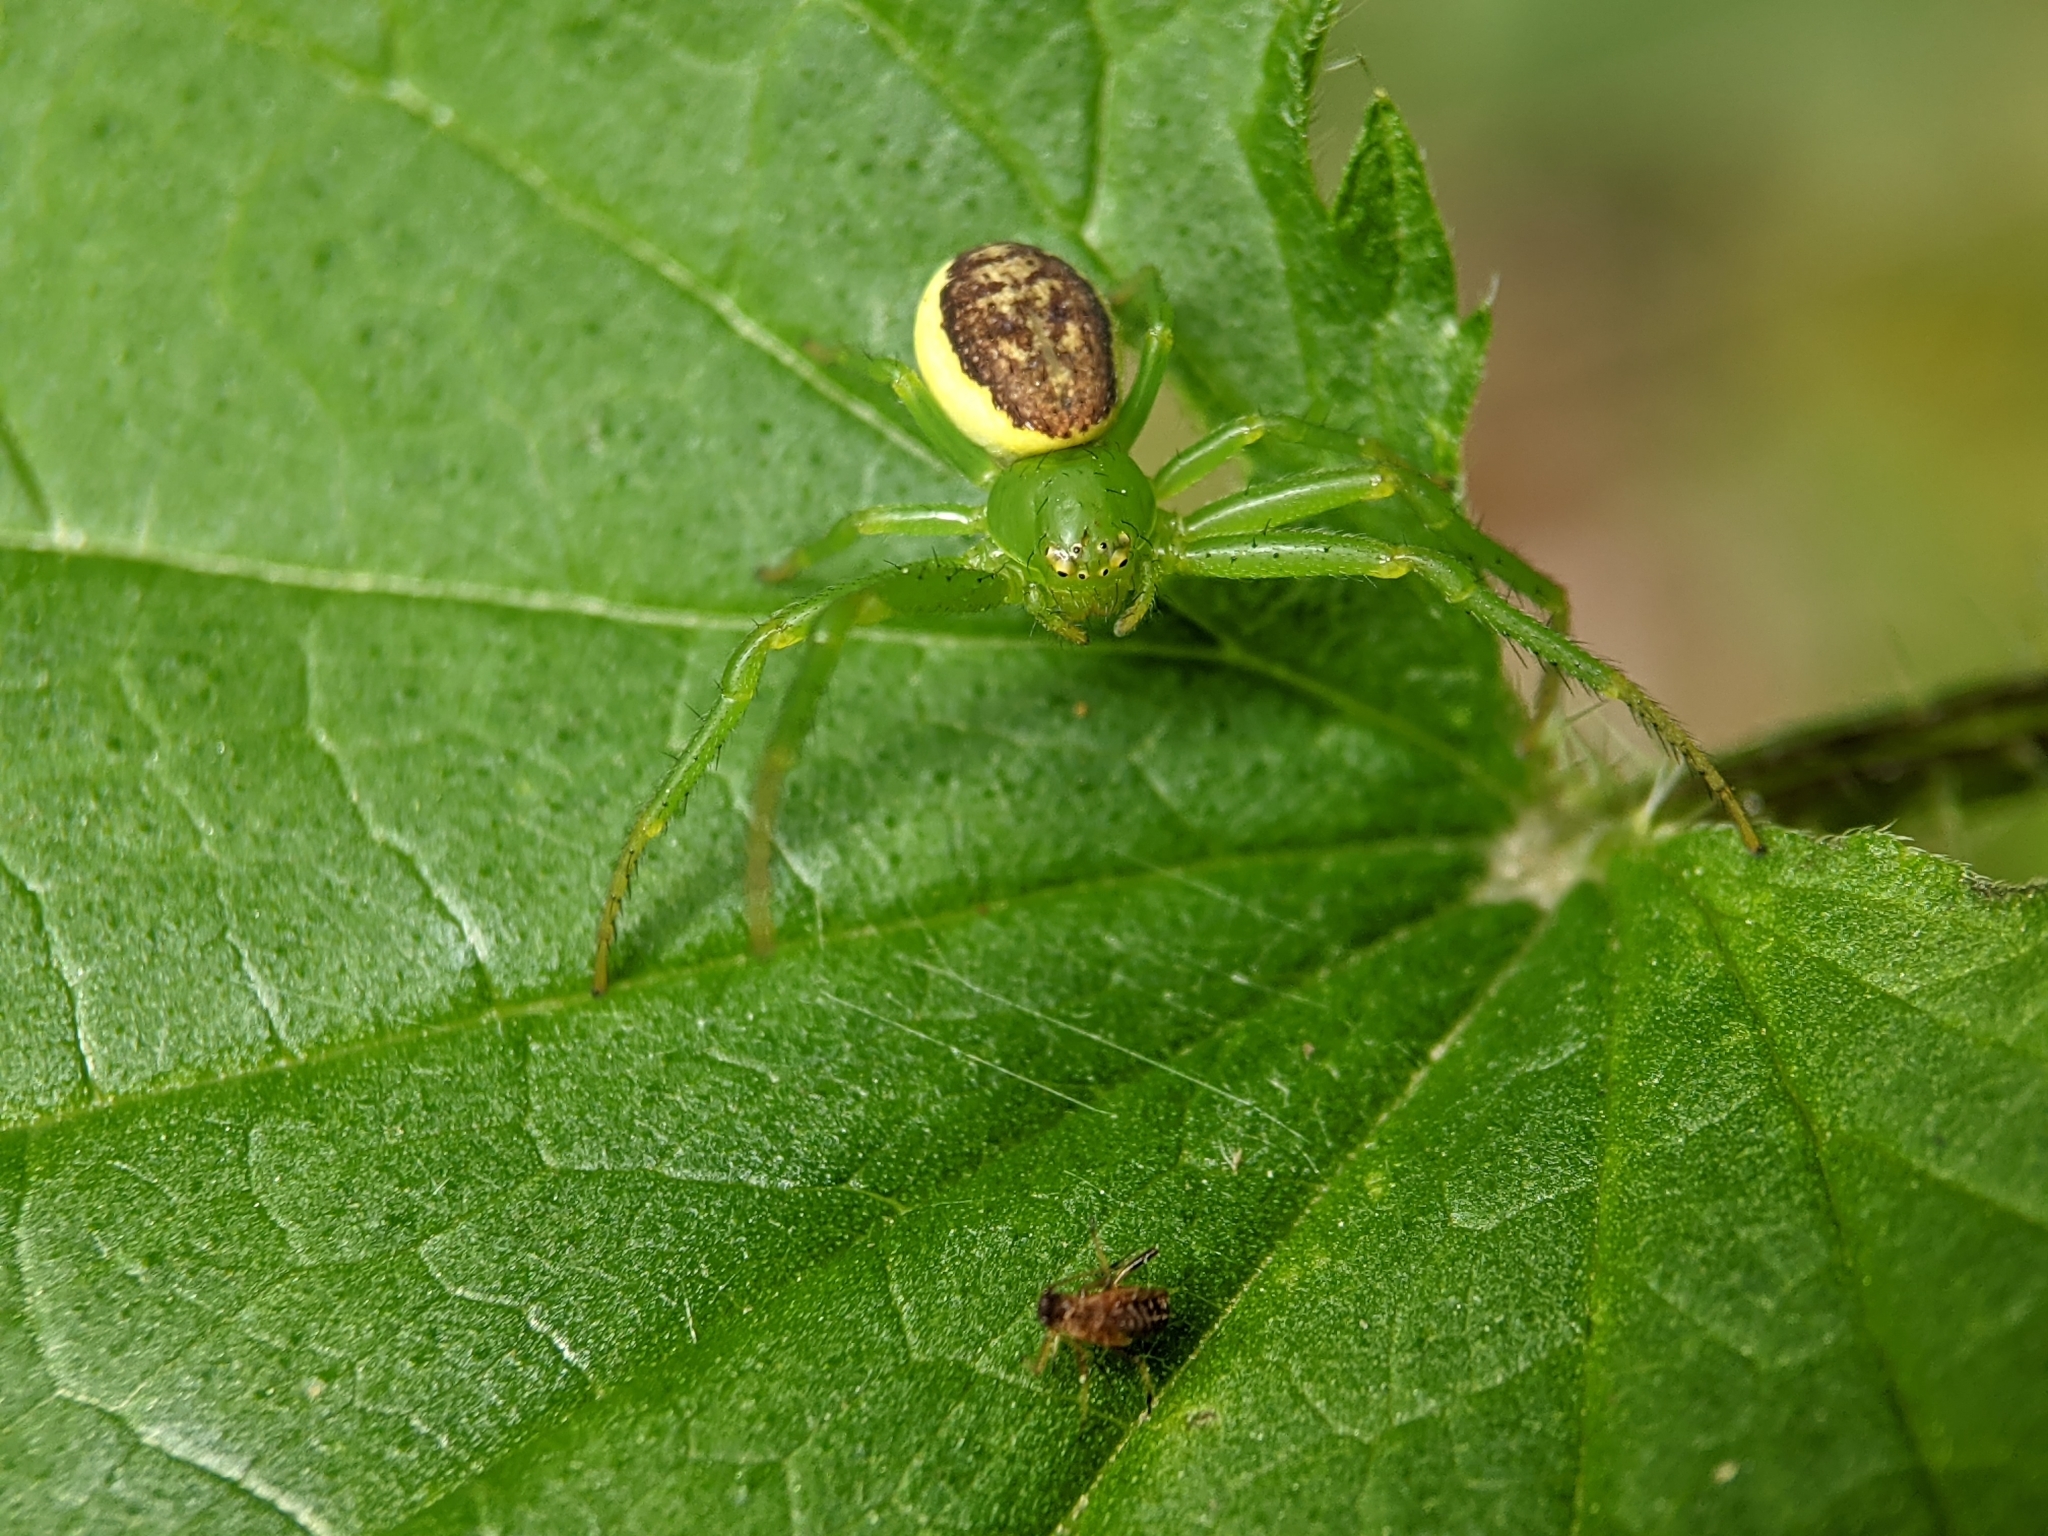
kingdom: Animalia
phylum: Arthropoda
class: Arachnida
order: Araneae
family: Thomisidae
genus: Diaea
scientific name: Diaea dorsata
